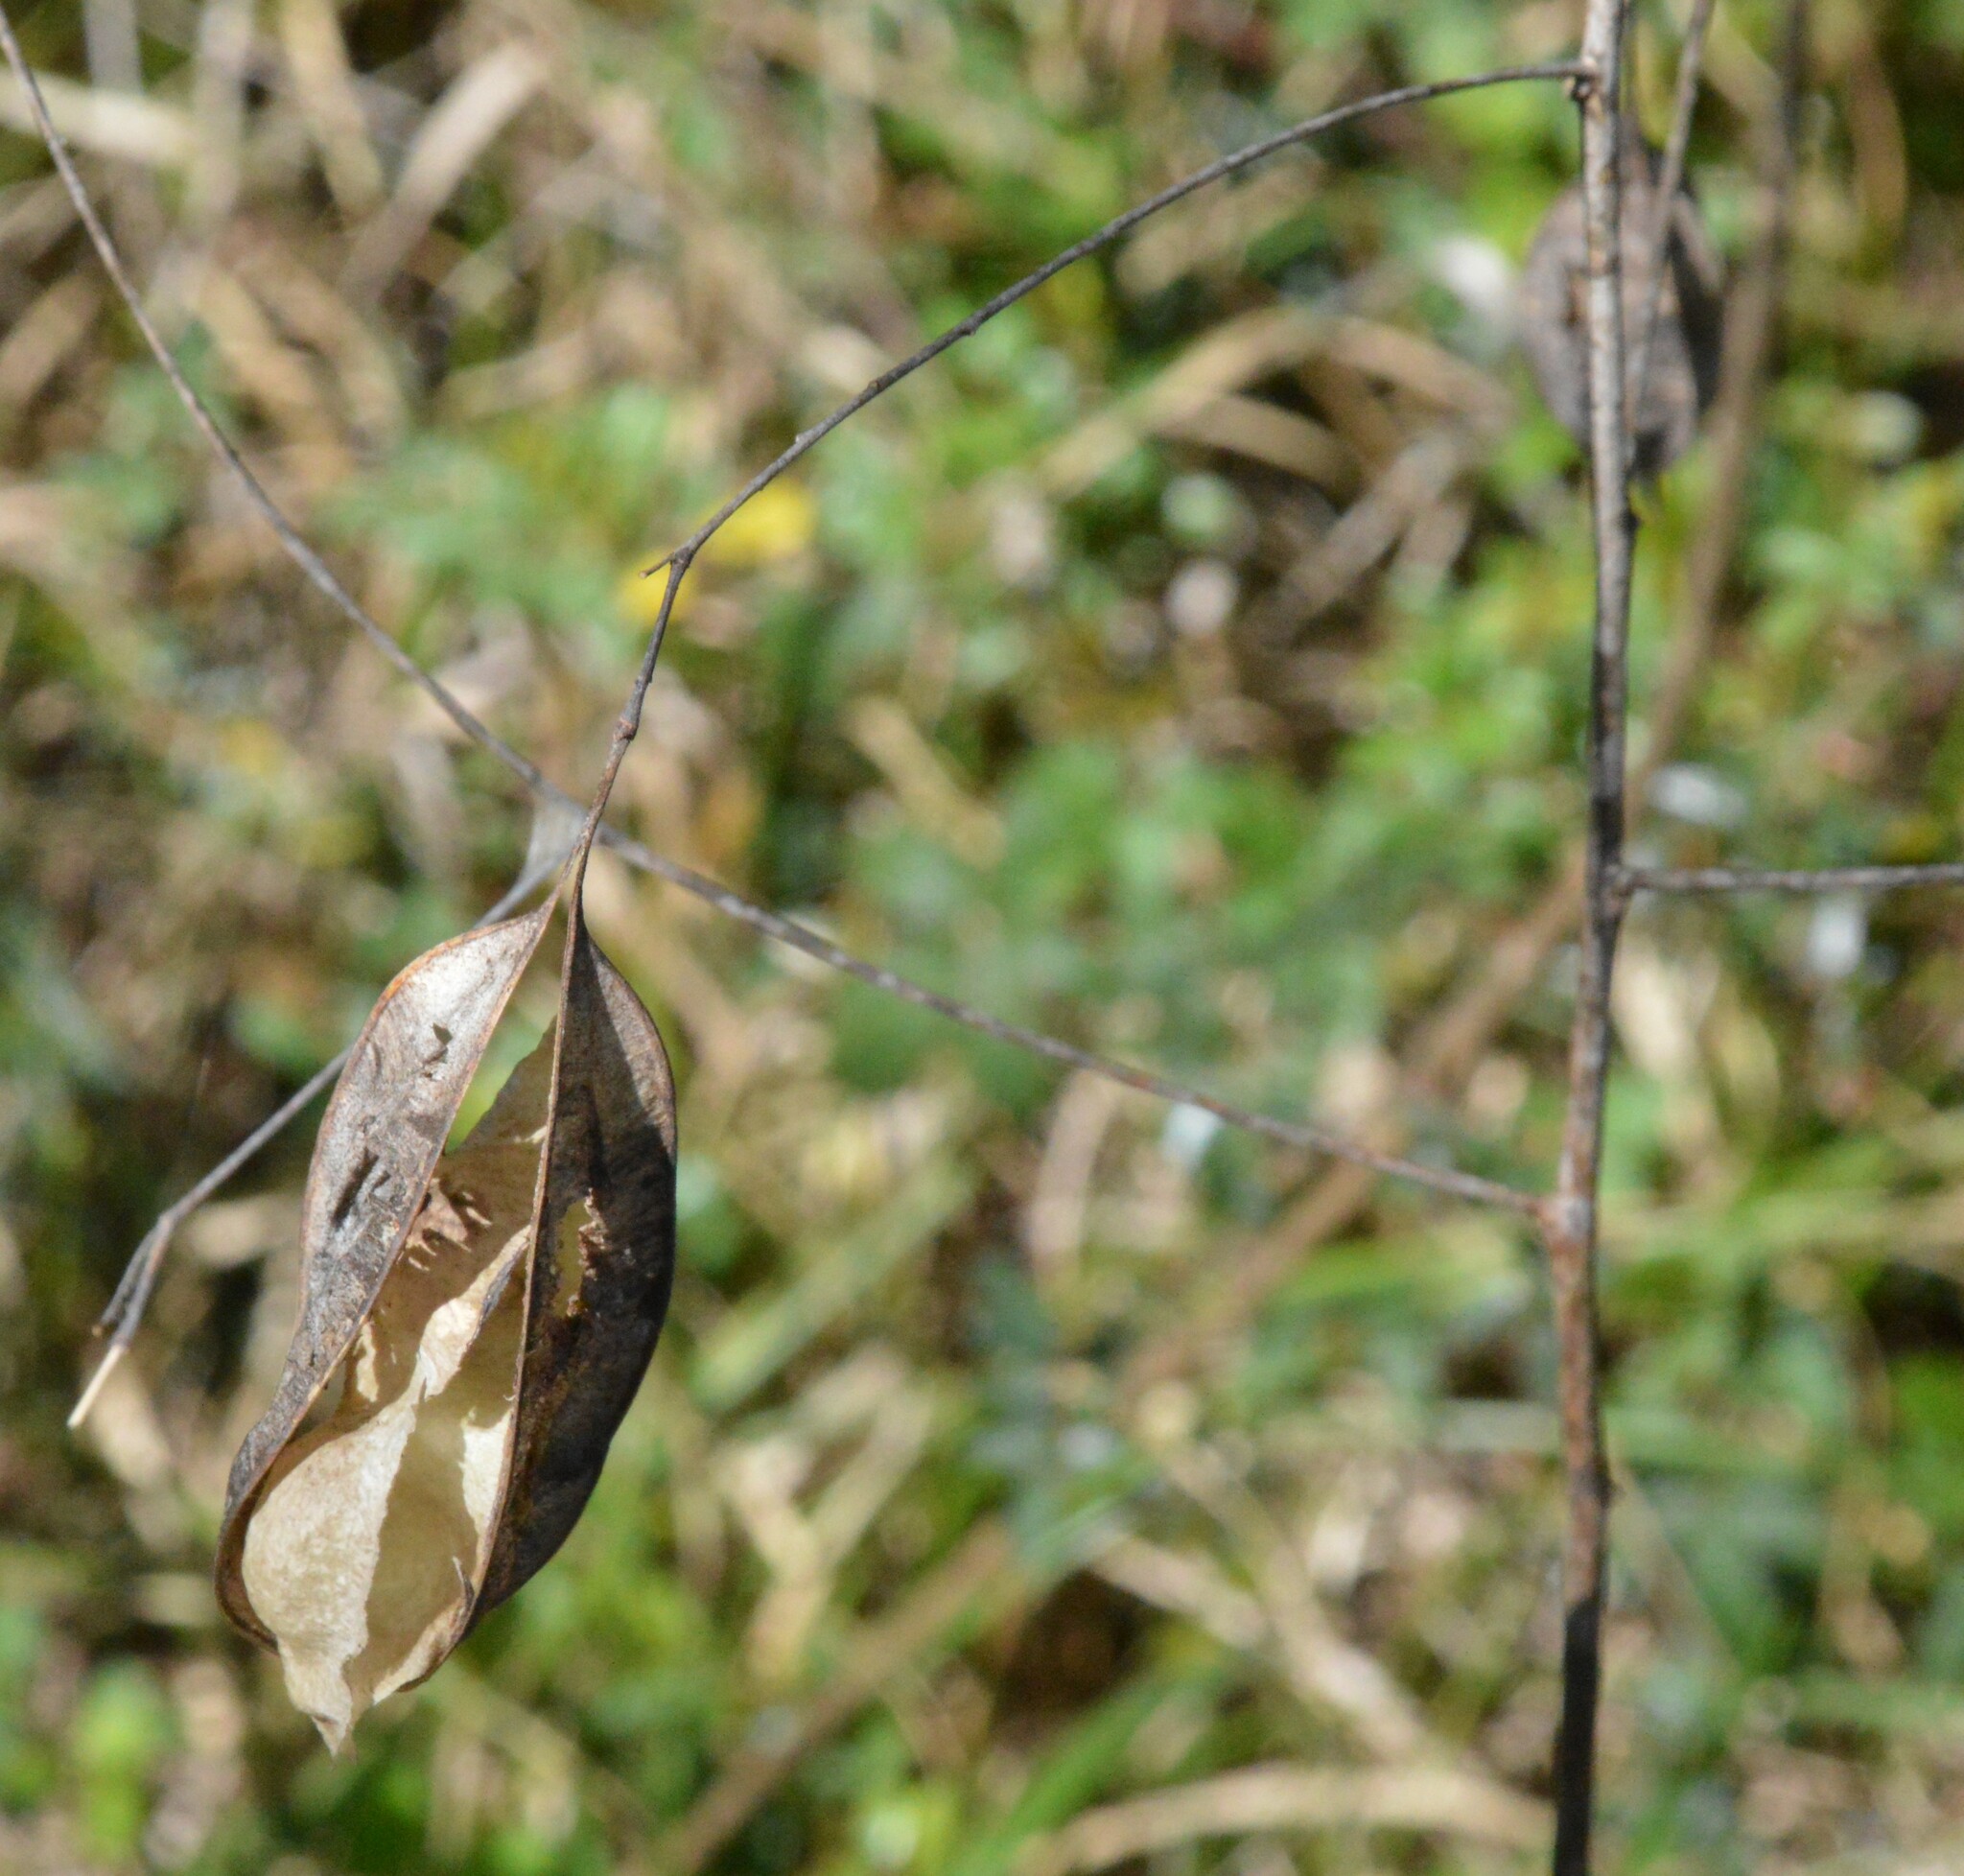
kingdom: Plantae
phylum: Tracheophyta
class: Magnoliopsida
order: Fabales
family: Fabaceae
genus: Sesbania
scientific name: Sesbania vesicaria
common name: Bagpod
